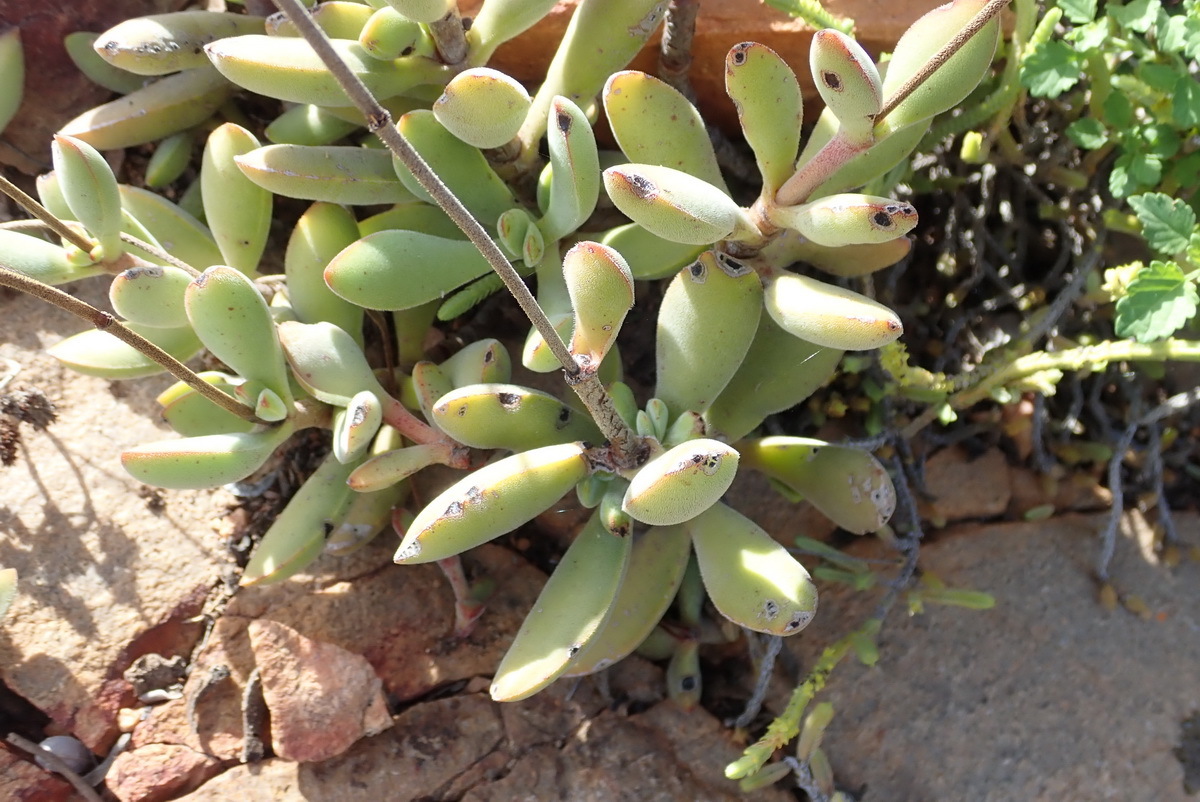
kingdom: Plantae
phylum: Tracheophyta
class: Magnoliopsida
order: Saxifragales
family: Crassulaceae
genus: Crassula
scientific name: Crassula rogersii
